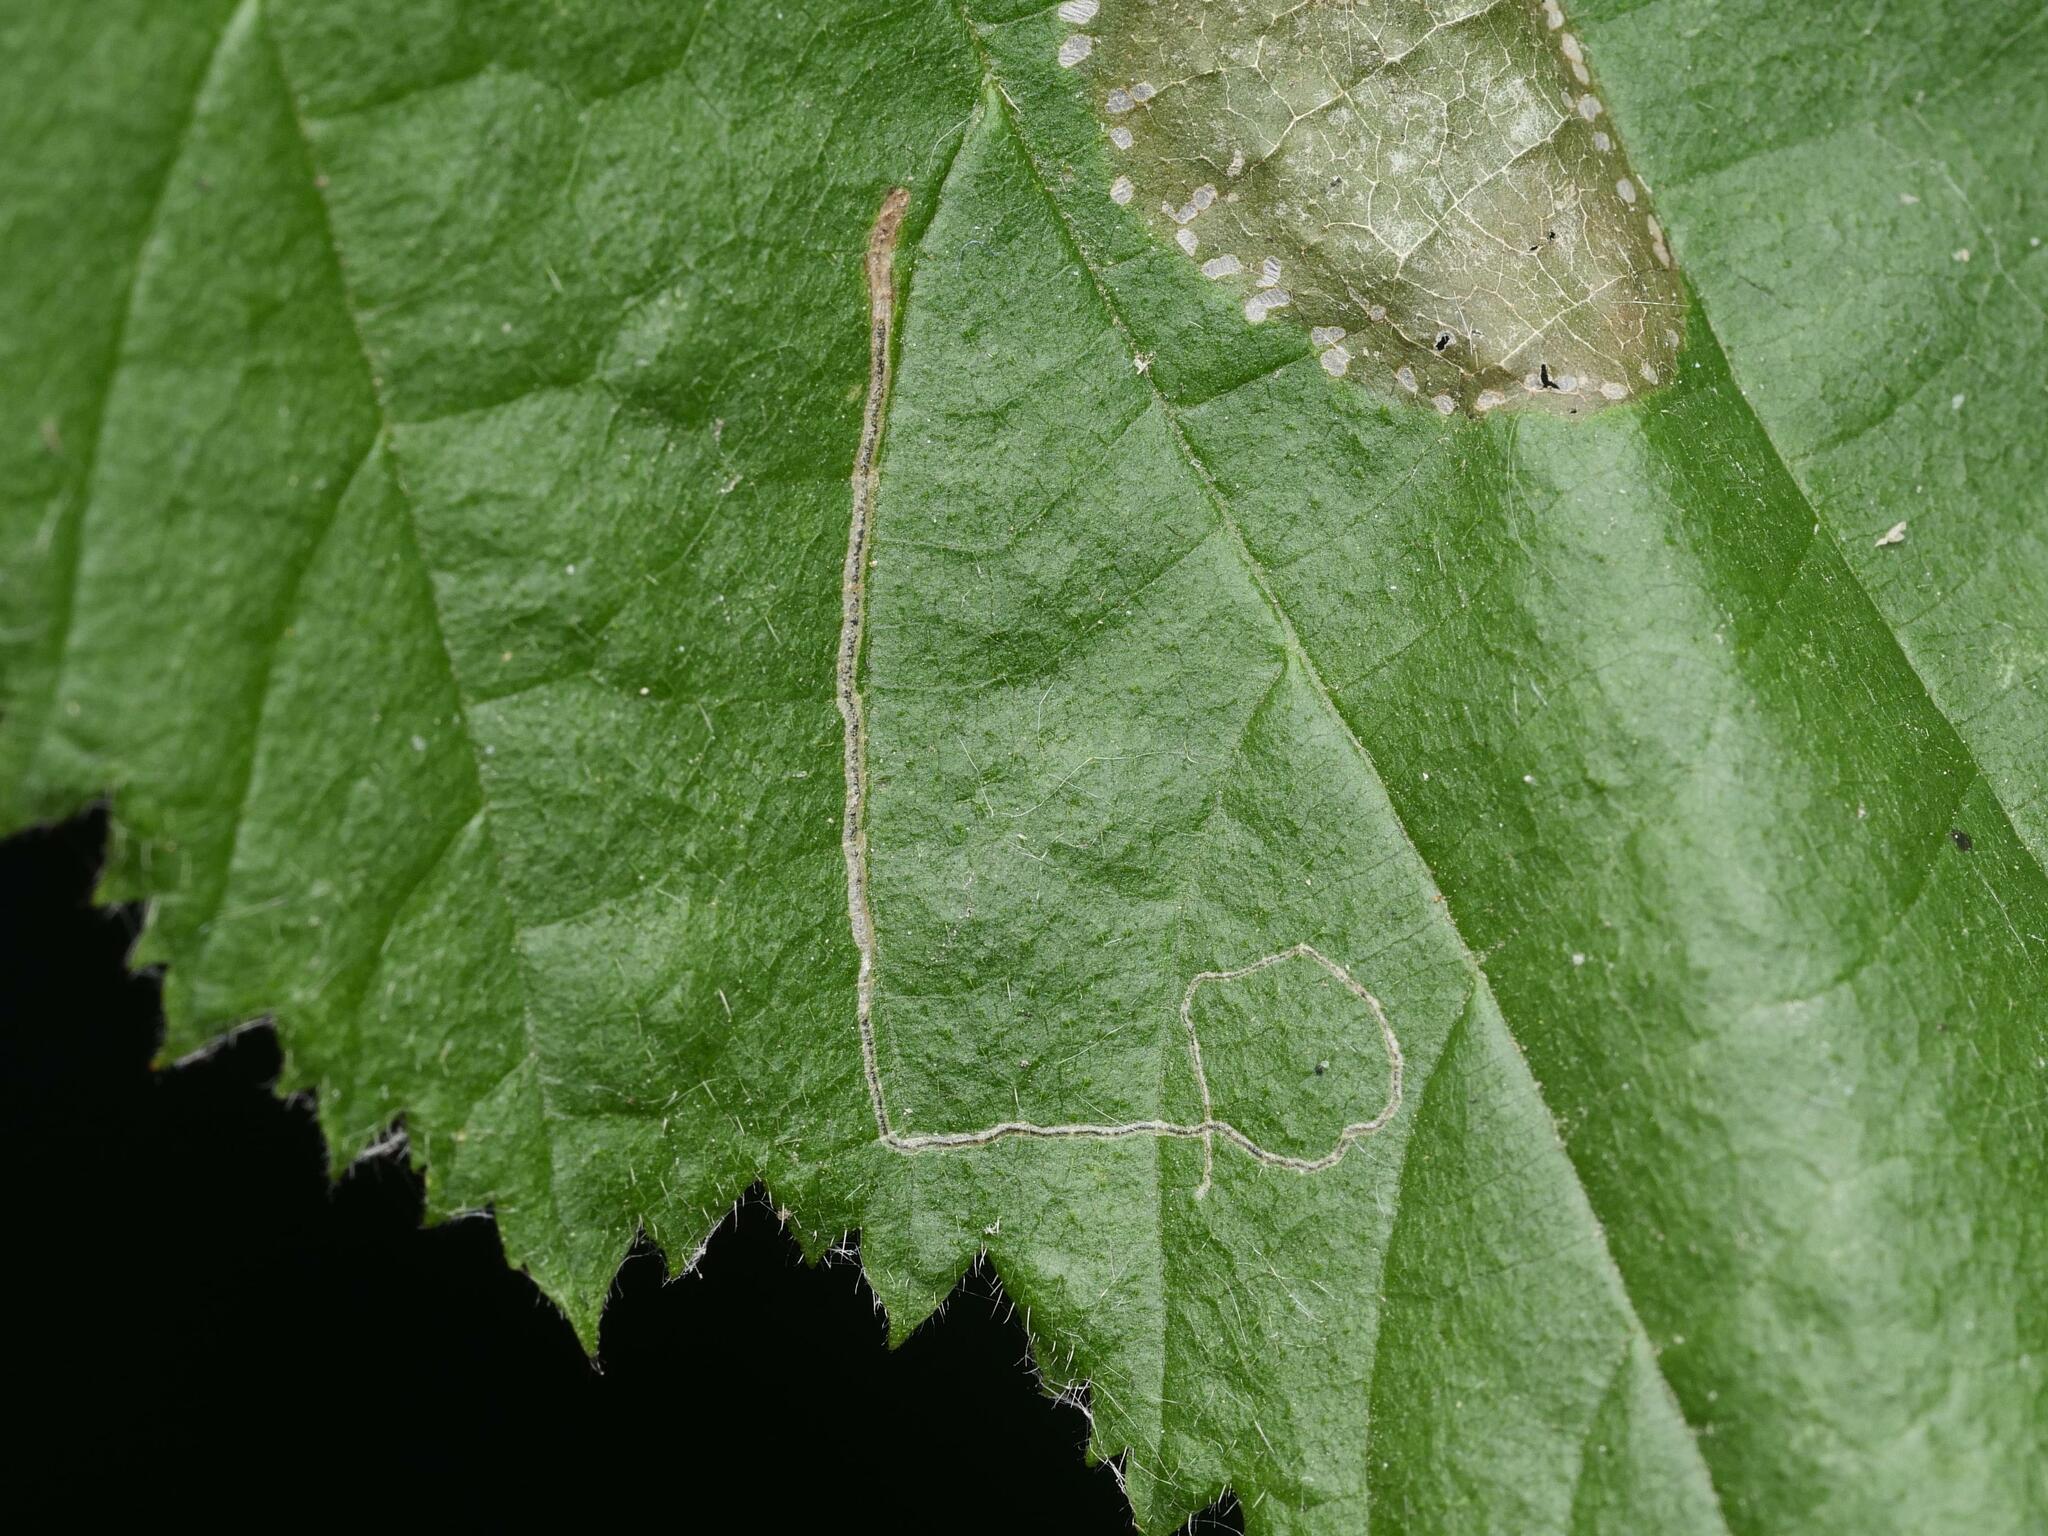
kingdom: Animalia
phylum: Arthropoda
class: Insecta
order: Lepidoptera
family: Nepticulidae
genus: Stigmella
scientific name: Stigmella microtheriella
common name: Nut-tree pigmy
